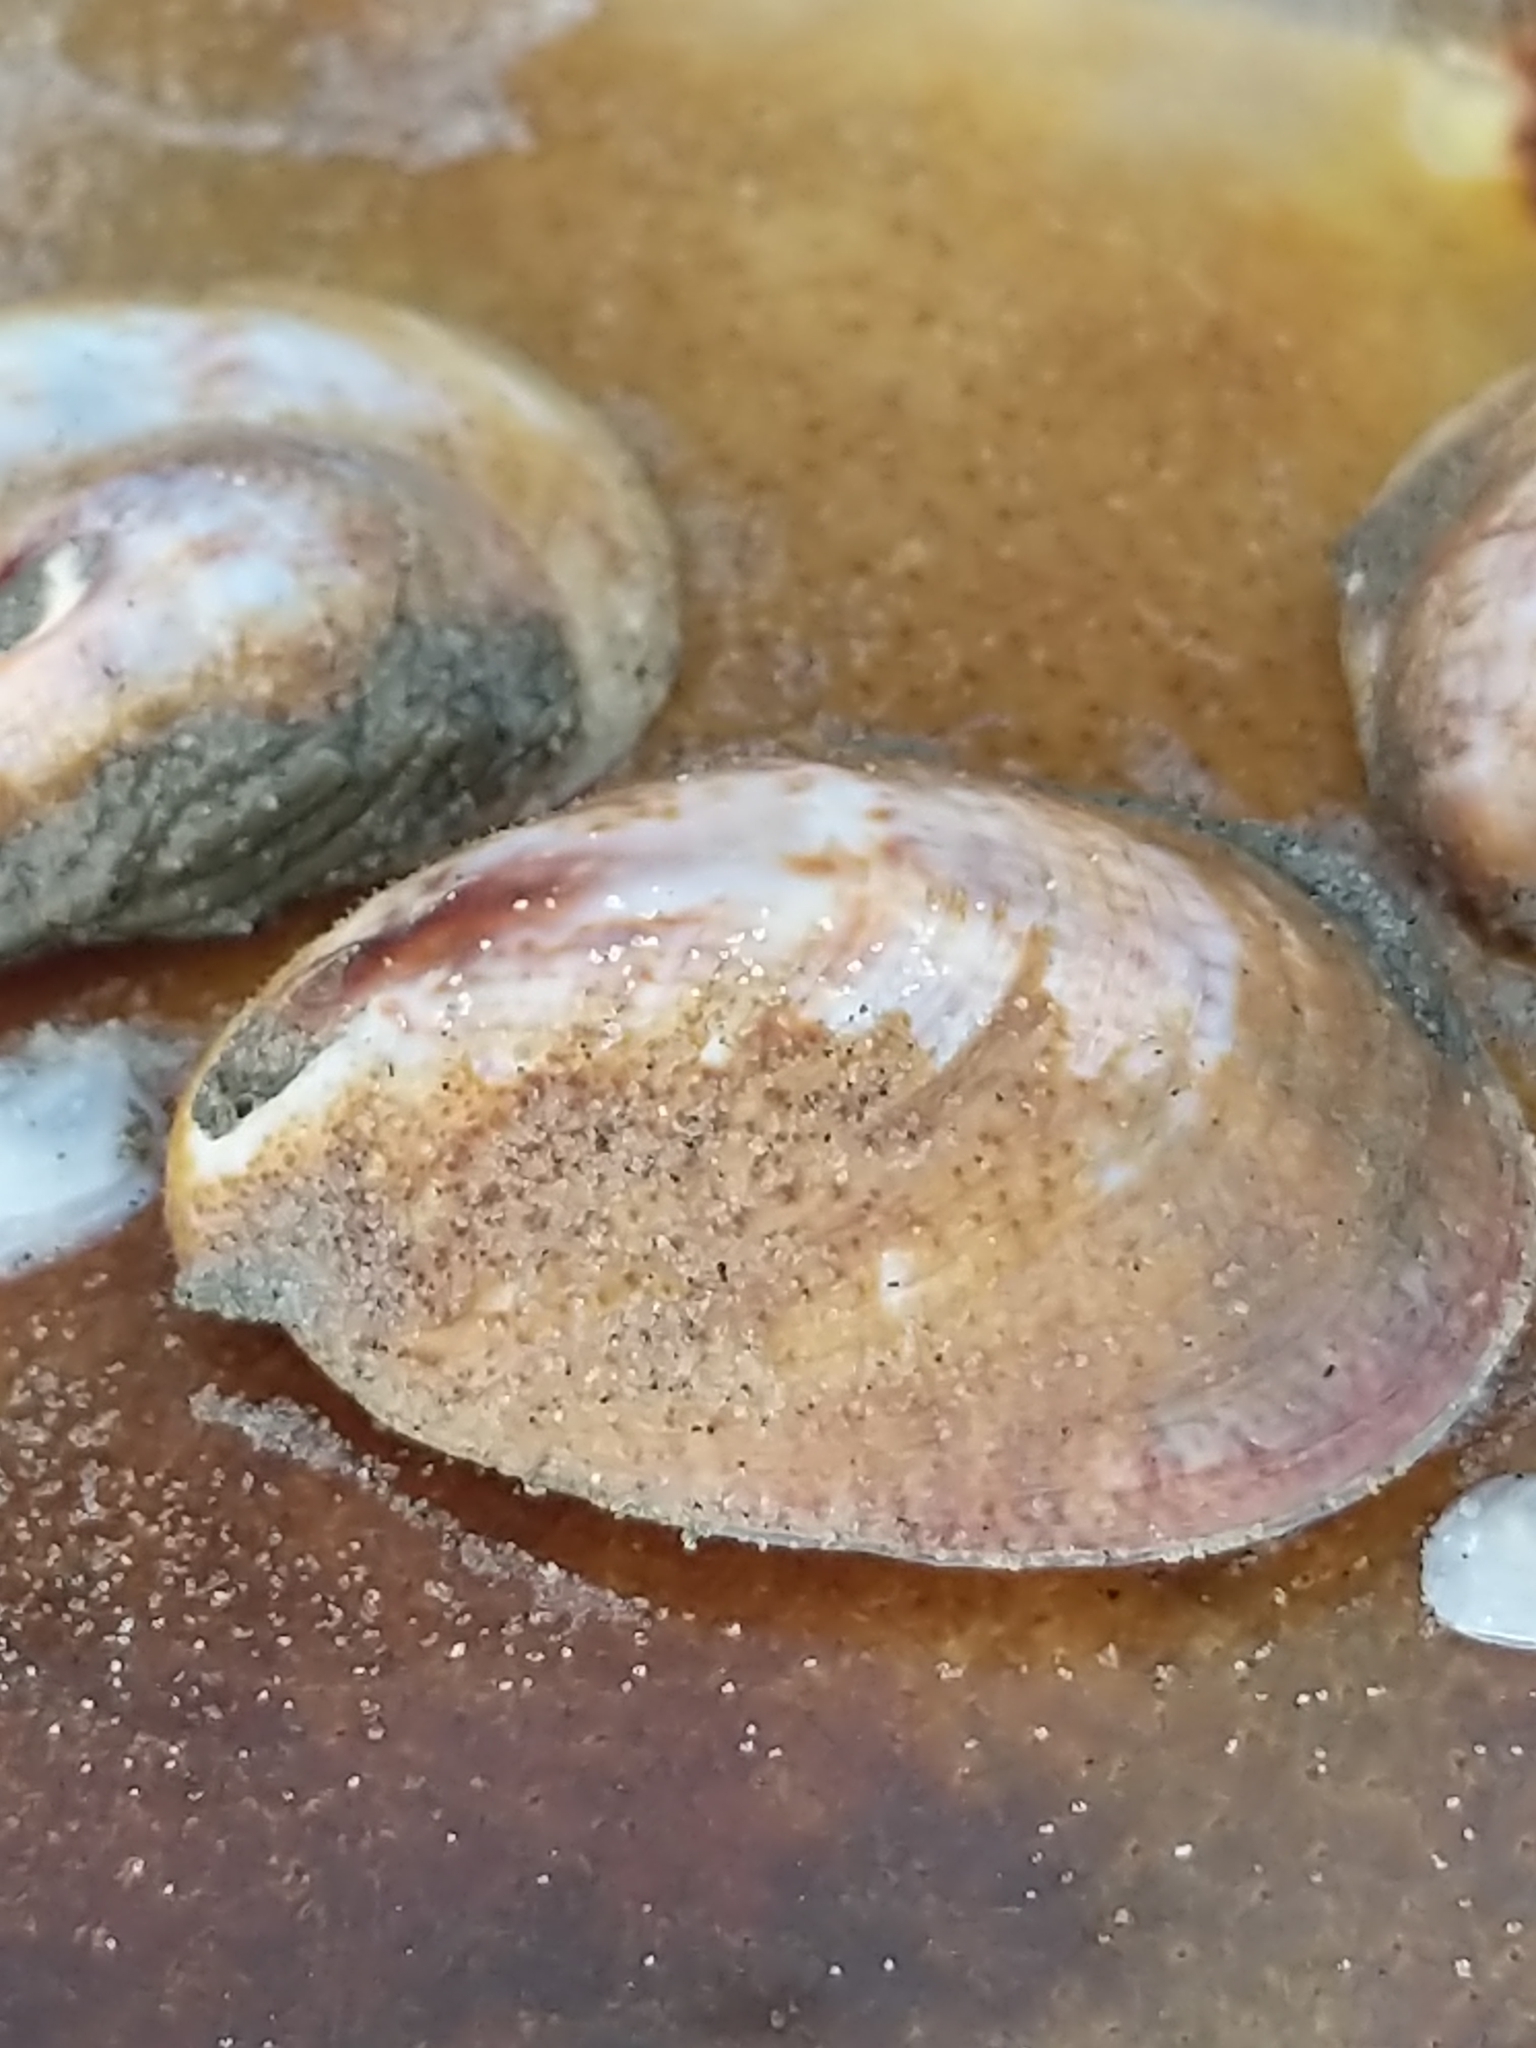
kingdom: Animalia
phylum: Mollusca
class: Gastropoda
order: Littorinimorpha
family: Calyptraeidae
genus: Crepidula
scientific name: Crepidula fornicata
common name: Slipper limpet
